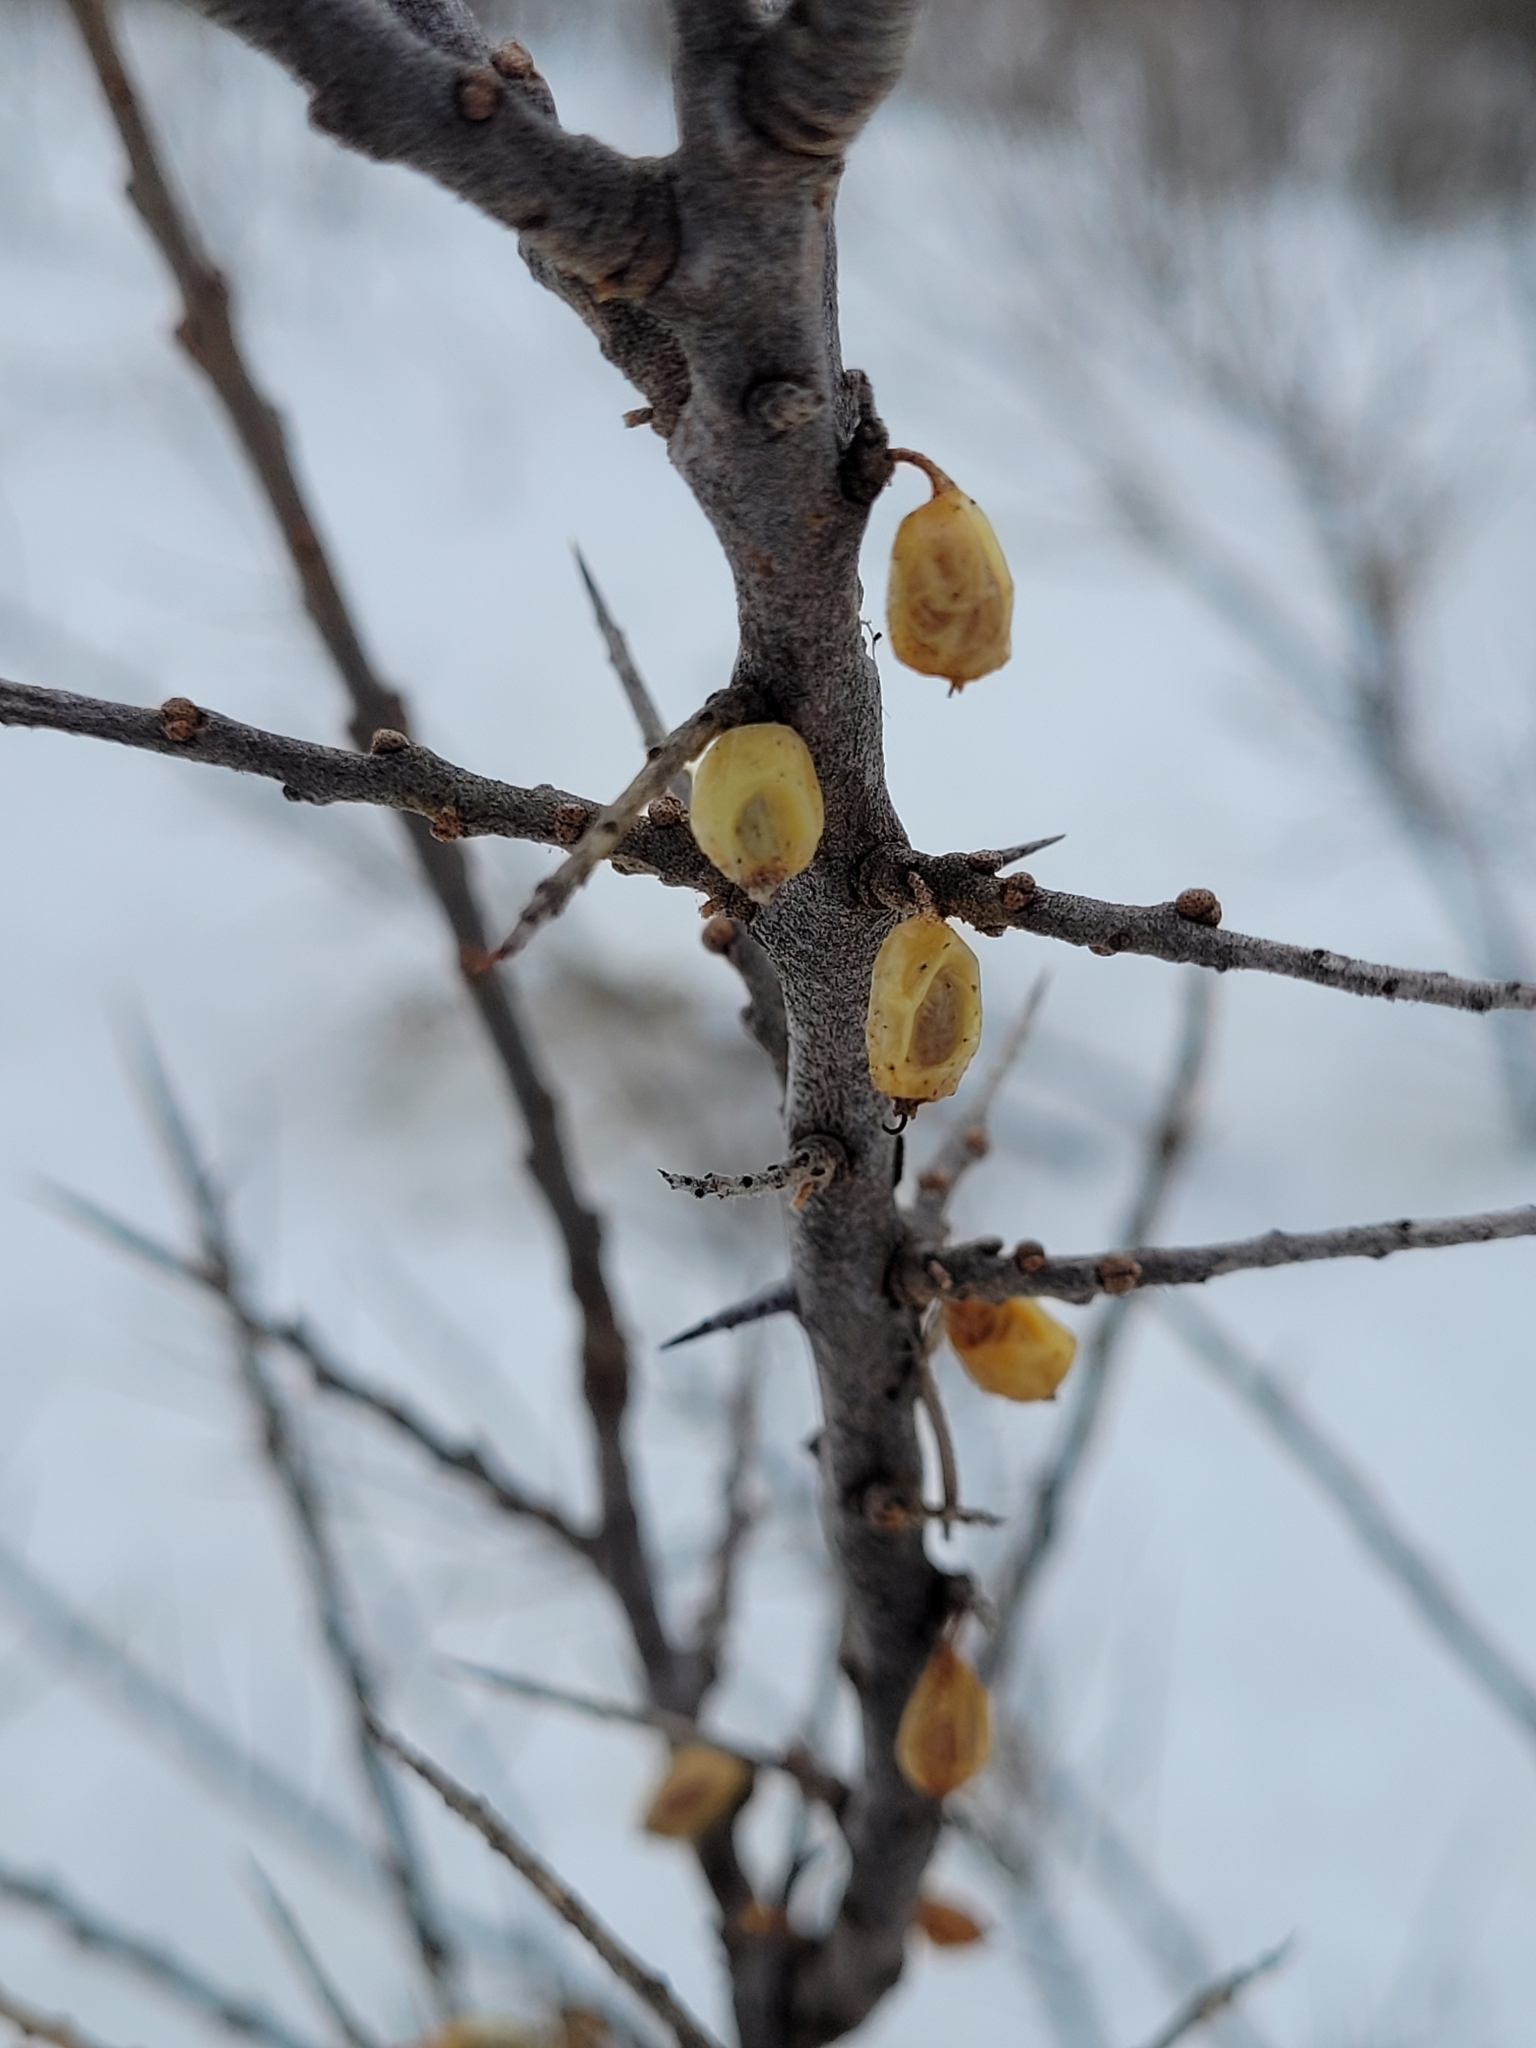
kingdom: Plantae
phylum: Tracheophyta
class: Magnoliopsida
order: Rosales
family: Elaeagnaceae
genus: Hippophae
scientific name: Hippophae rhamnoides
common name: Sea-buckthorn
